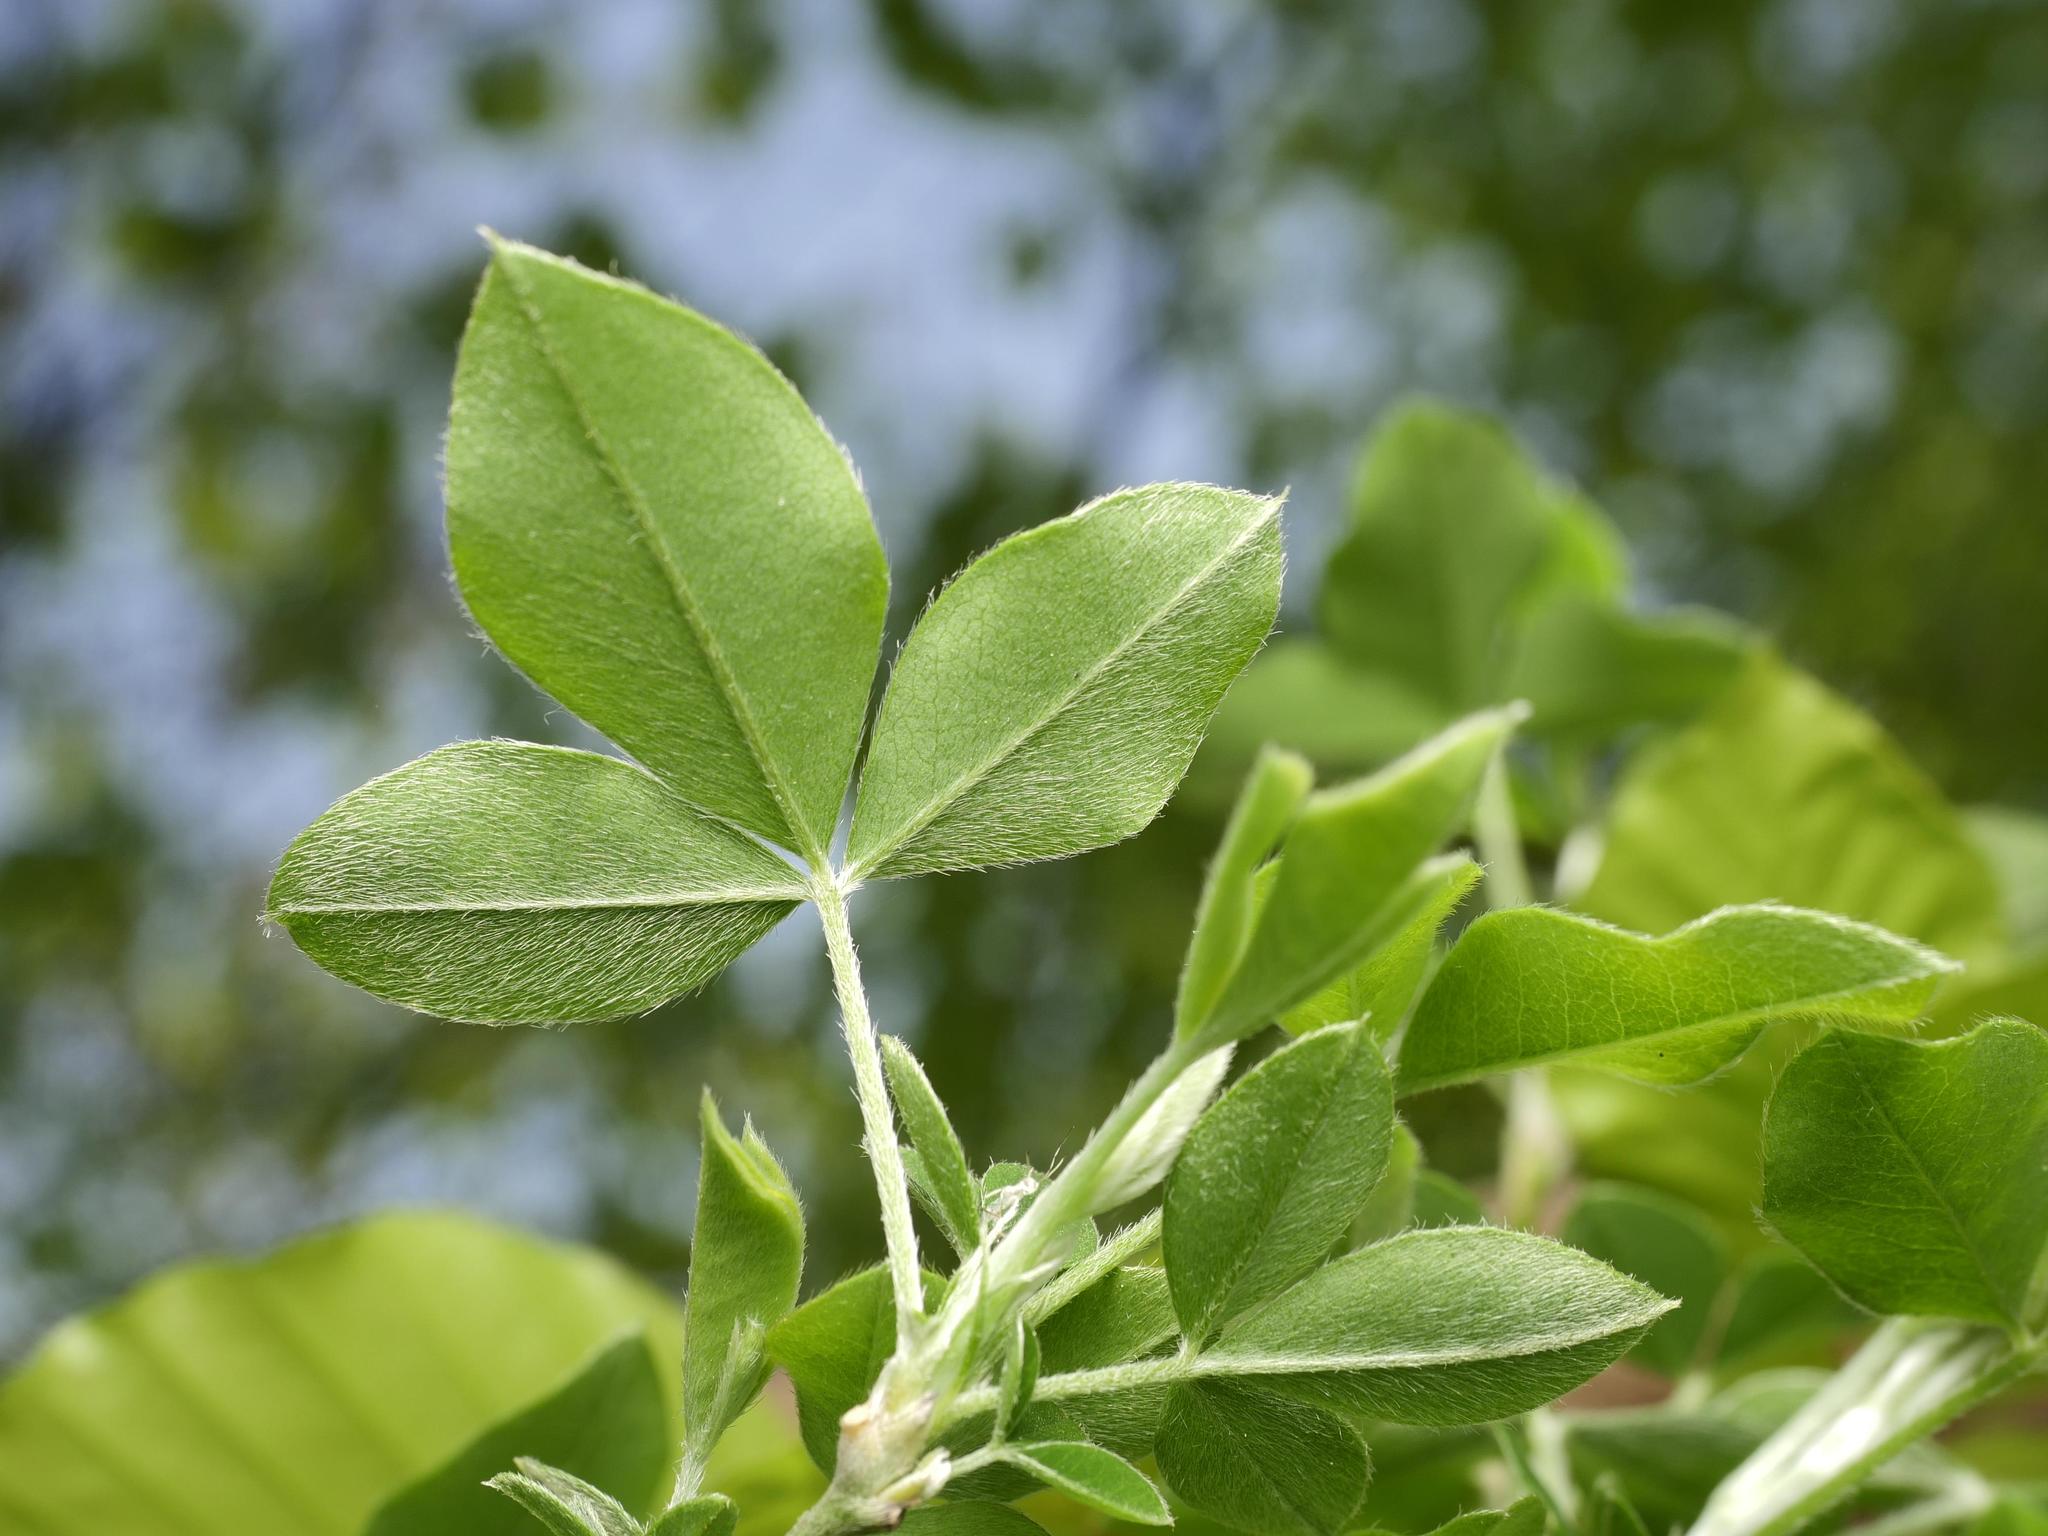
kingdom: Plantae
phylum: Tracheophyta
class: Magnoliopsida
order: Fabales
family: Fabaceae
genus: Laburnum
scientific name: Laburnum anagyroides
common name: Laburnum
